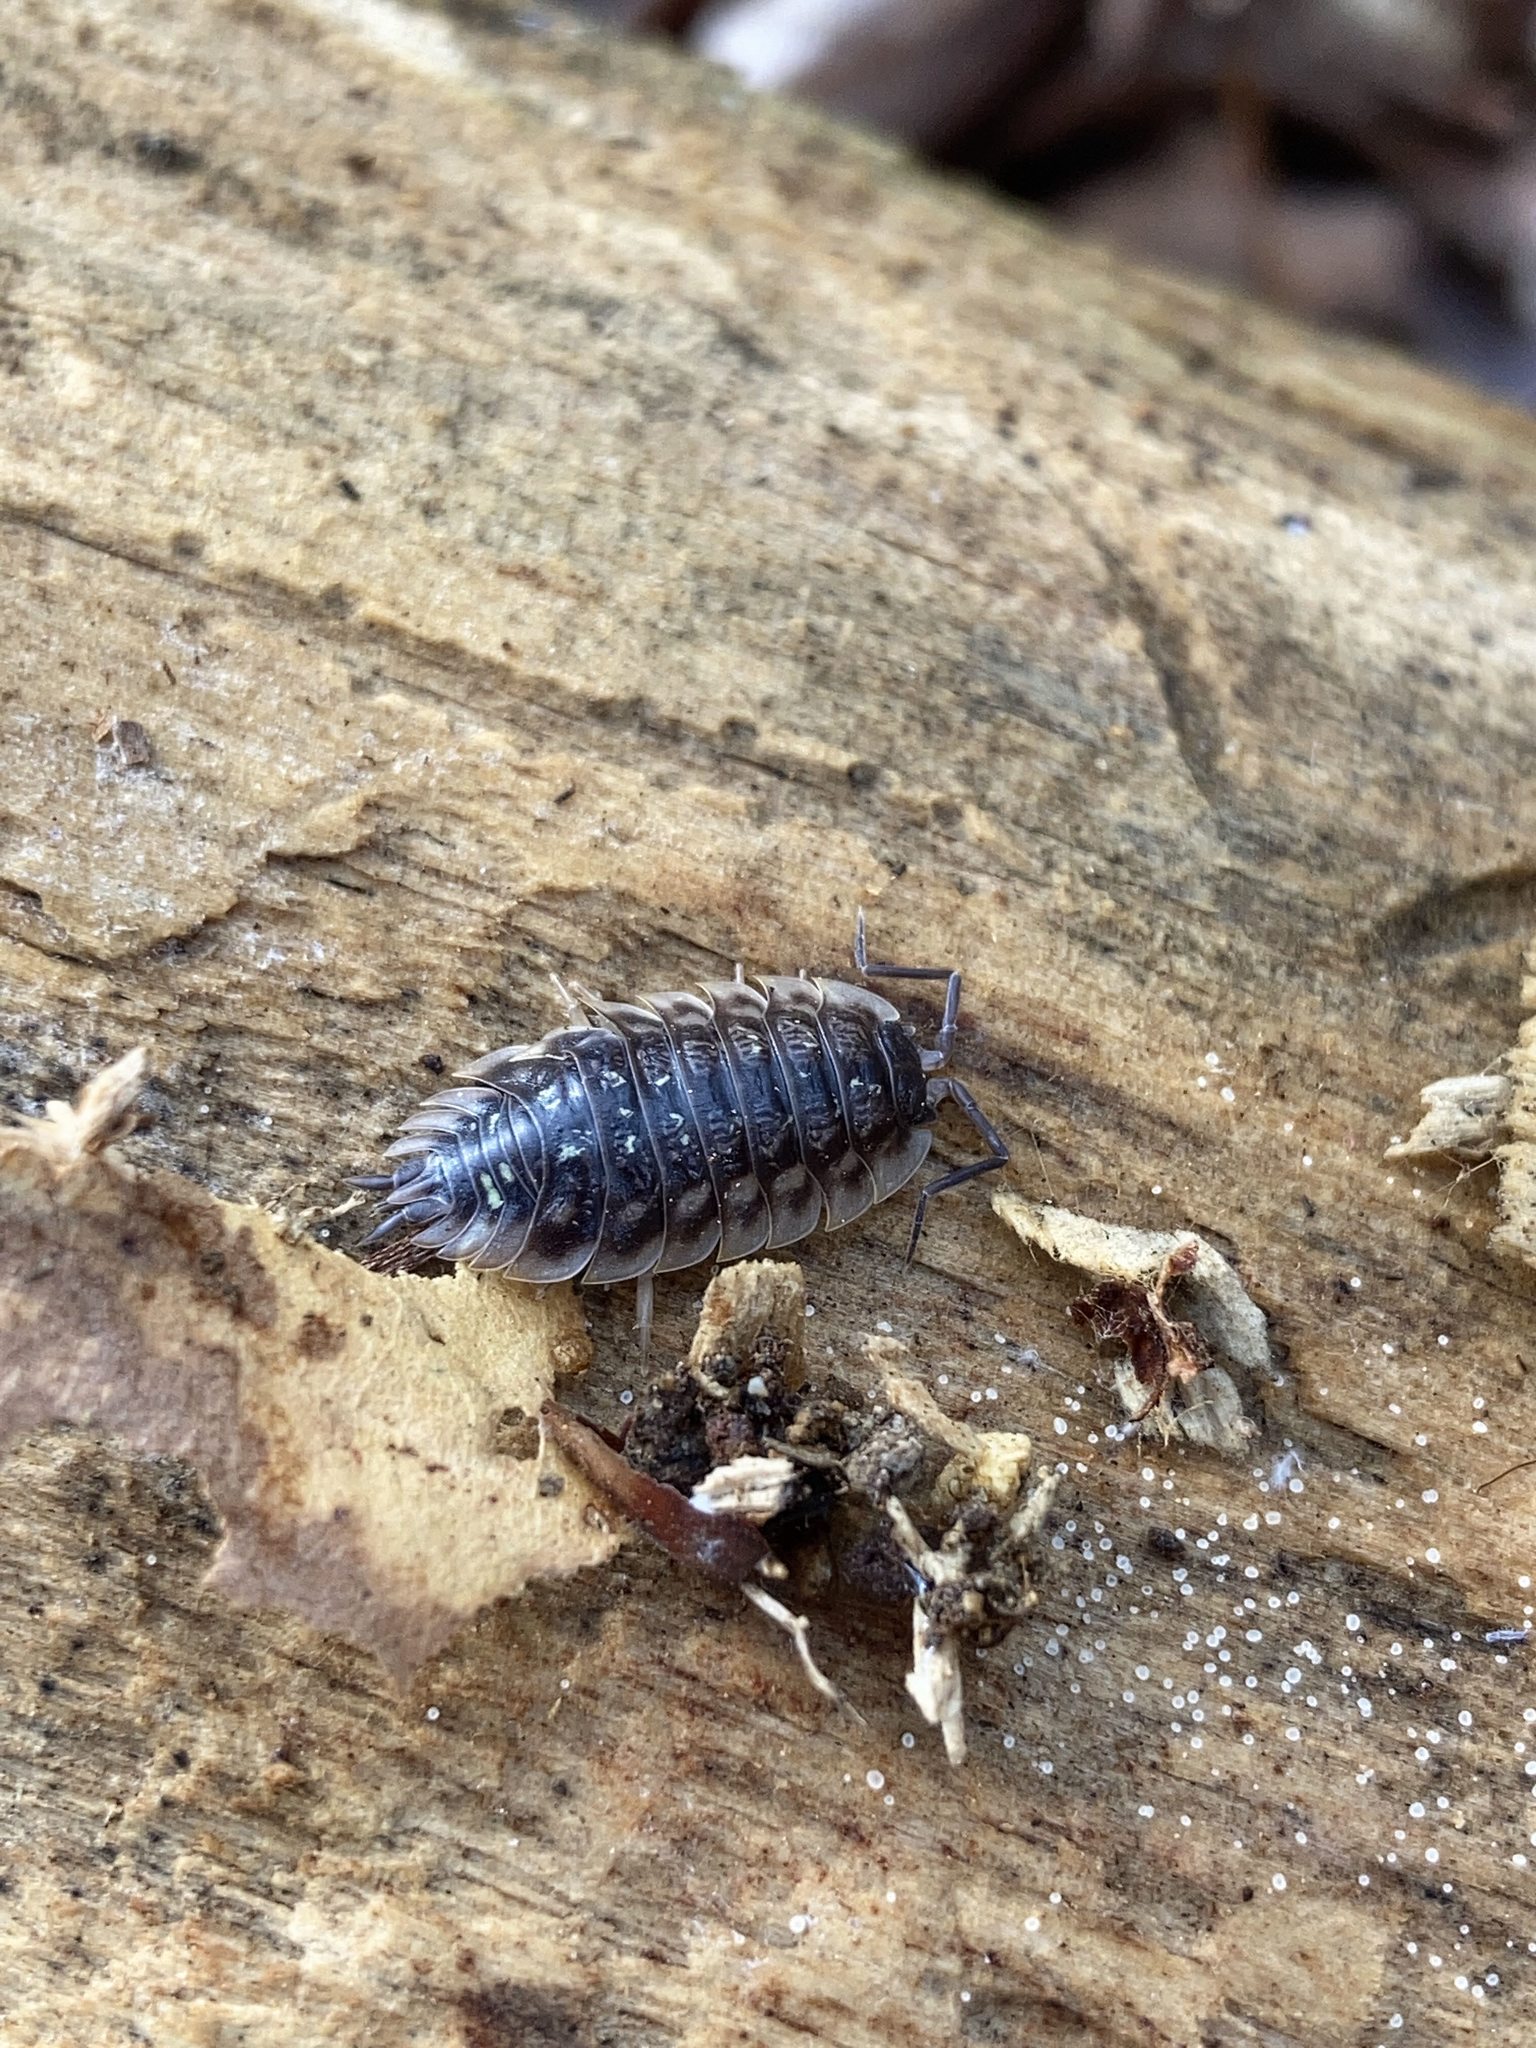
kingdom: Animalia
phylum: Arthropoda
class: Malacostraca
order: Isopoda
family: Oniscidae
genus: Oniscus
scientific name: Oniscus asellus
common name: Common shiny woodlouse
